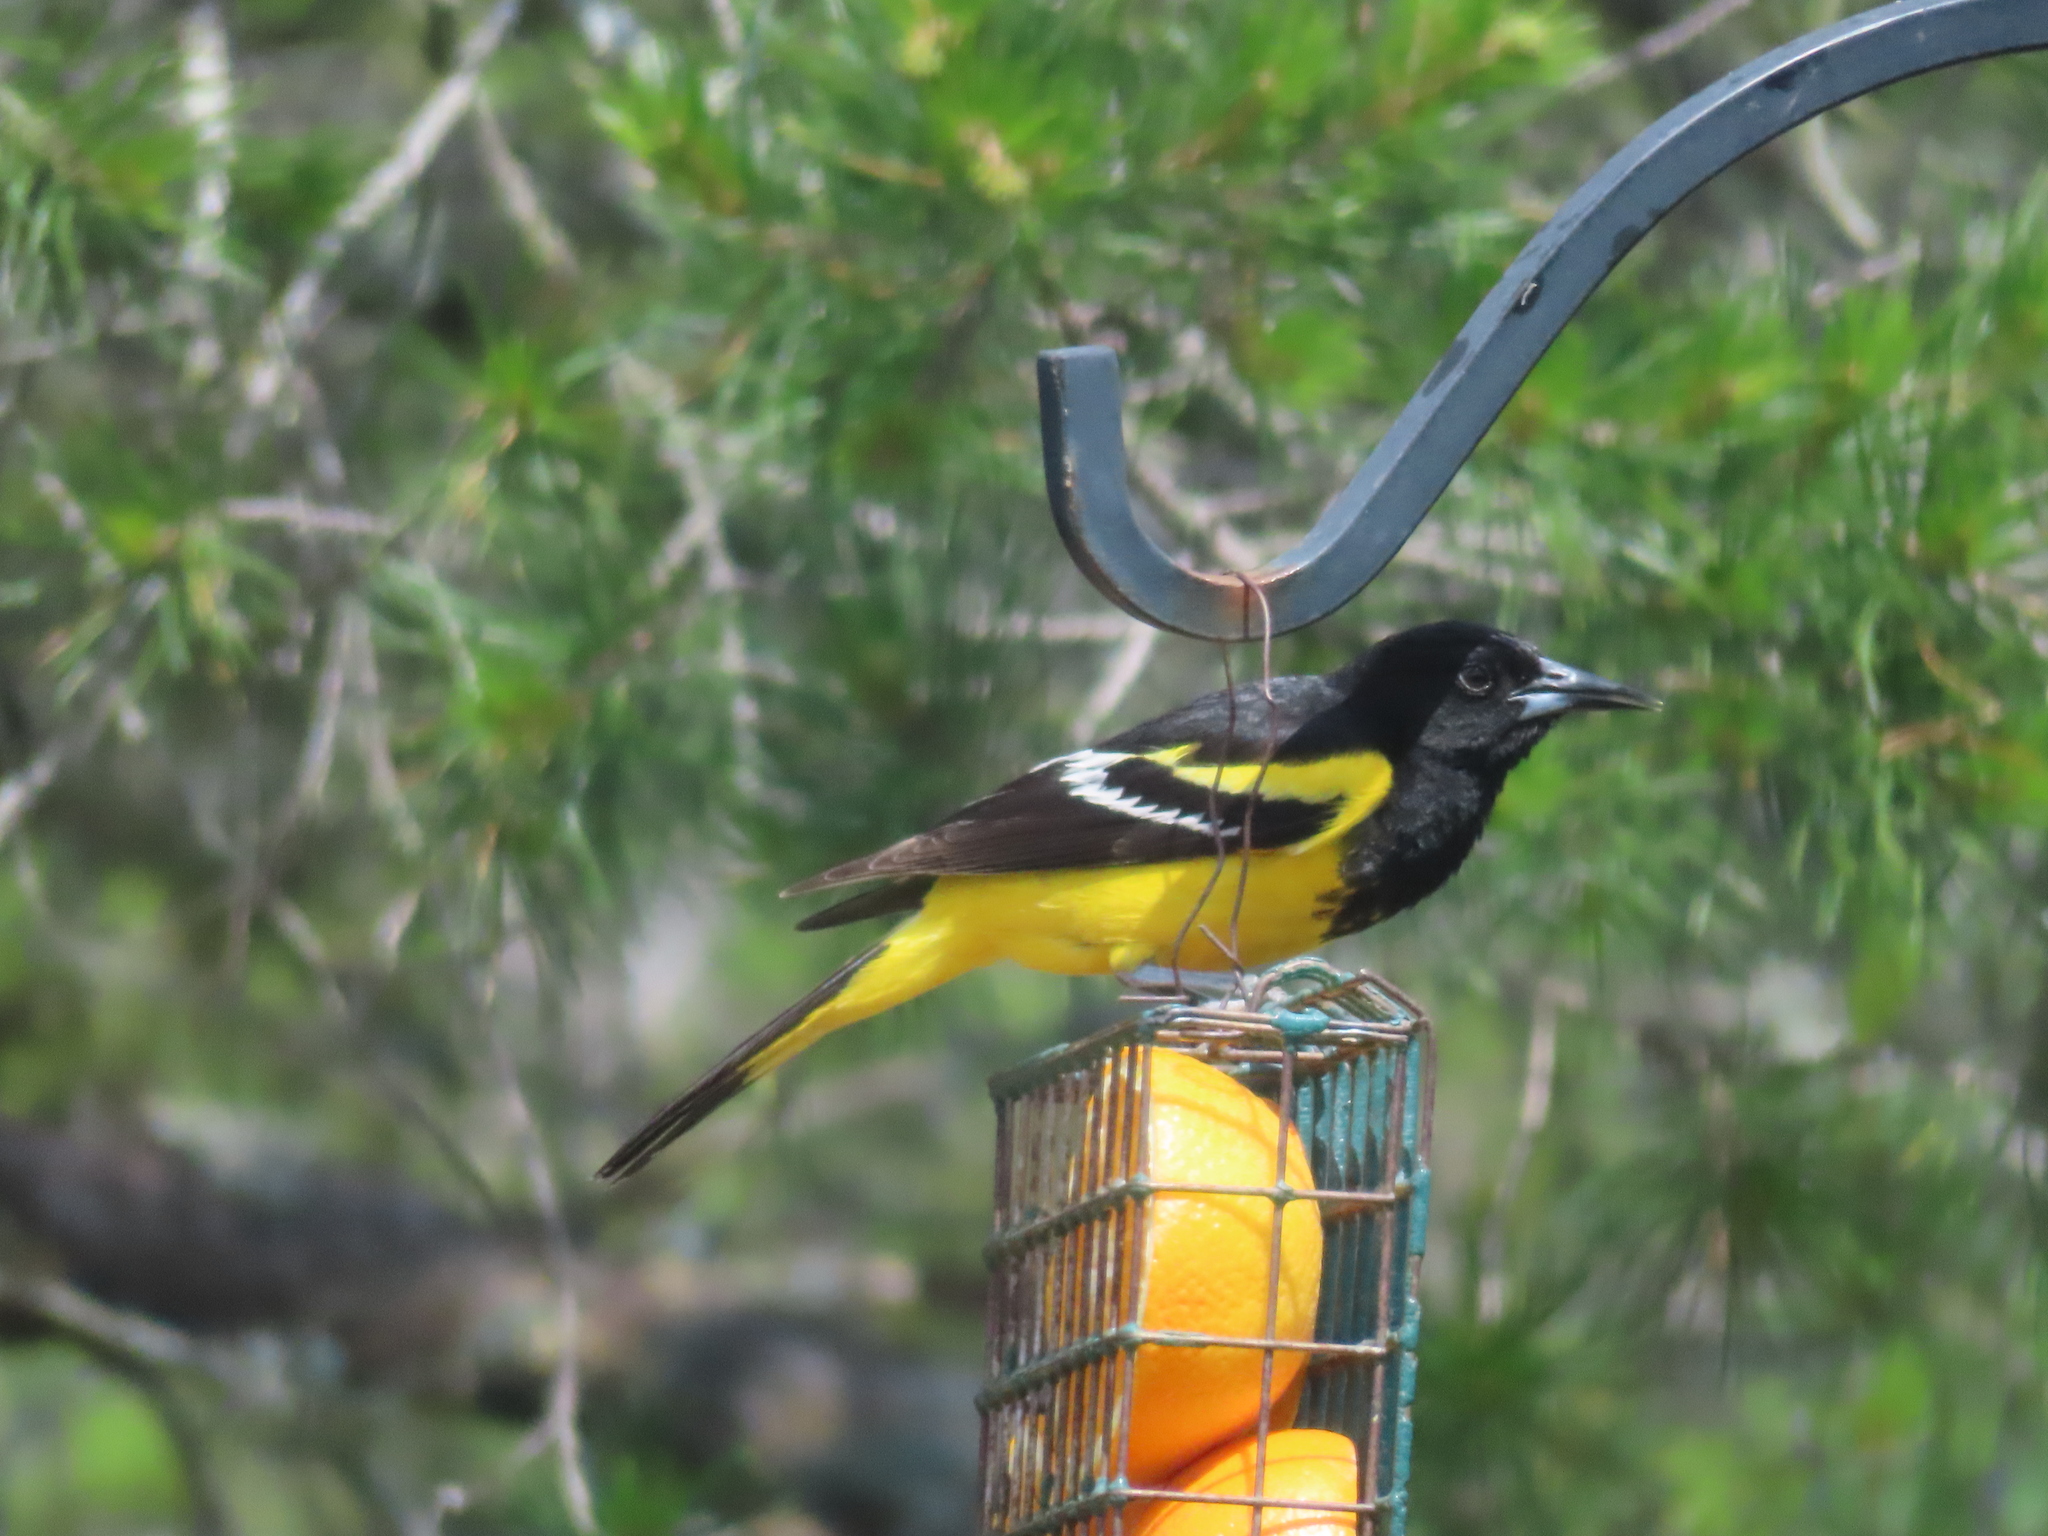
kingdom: Animalia
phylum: Chordata
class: Aves
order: Passeriformes
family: Icteridae
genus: Icterus
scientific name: Icterus parisorum
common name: Scott's oriole
